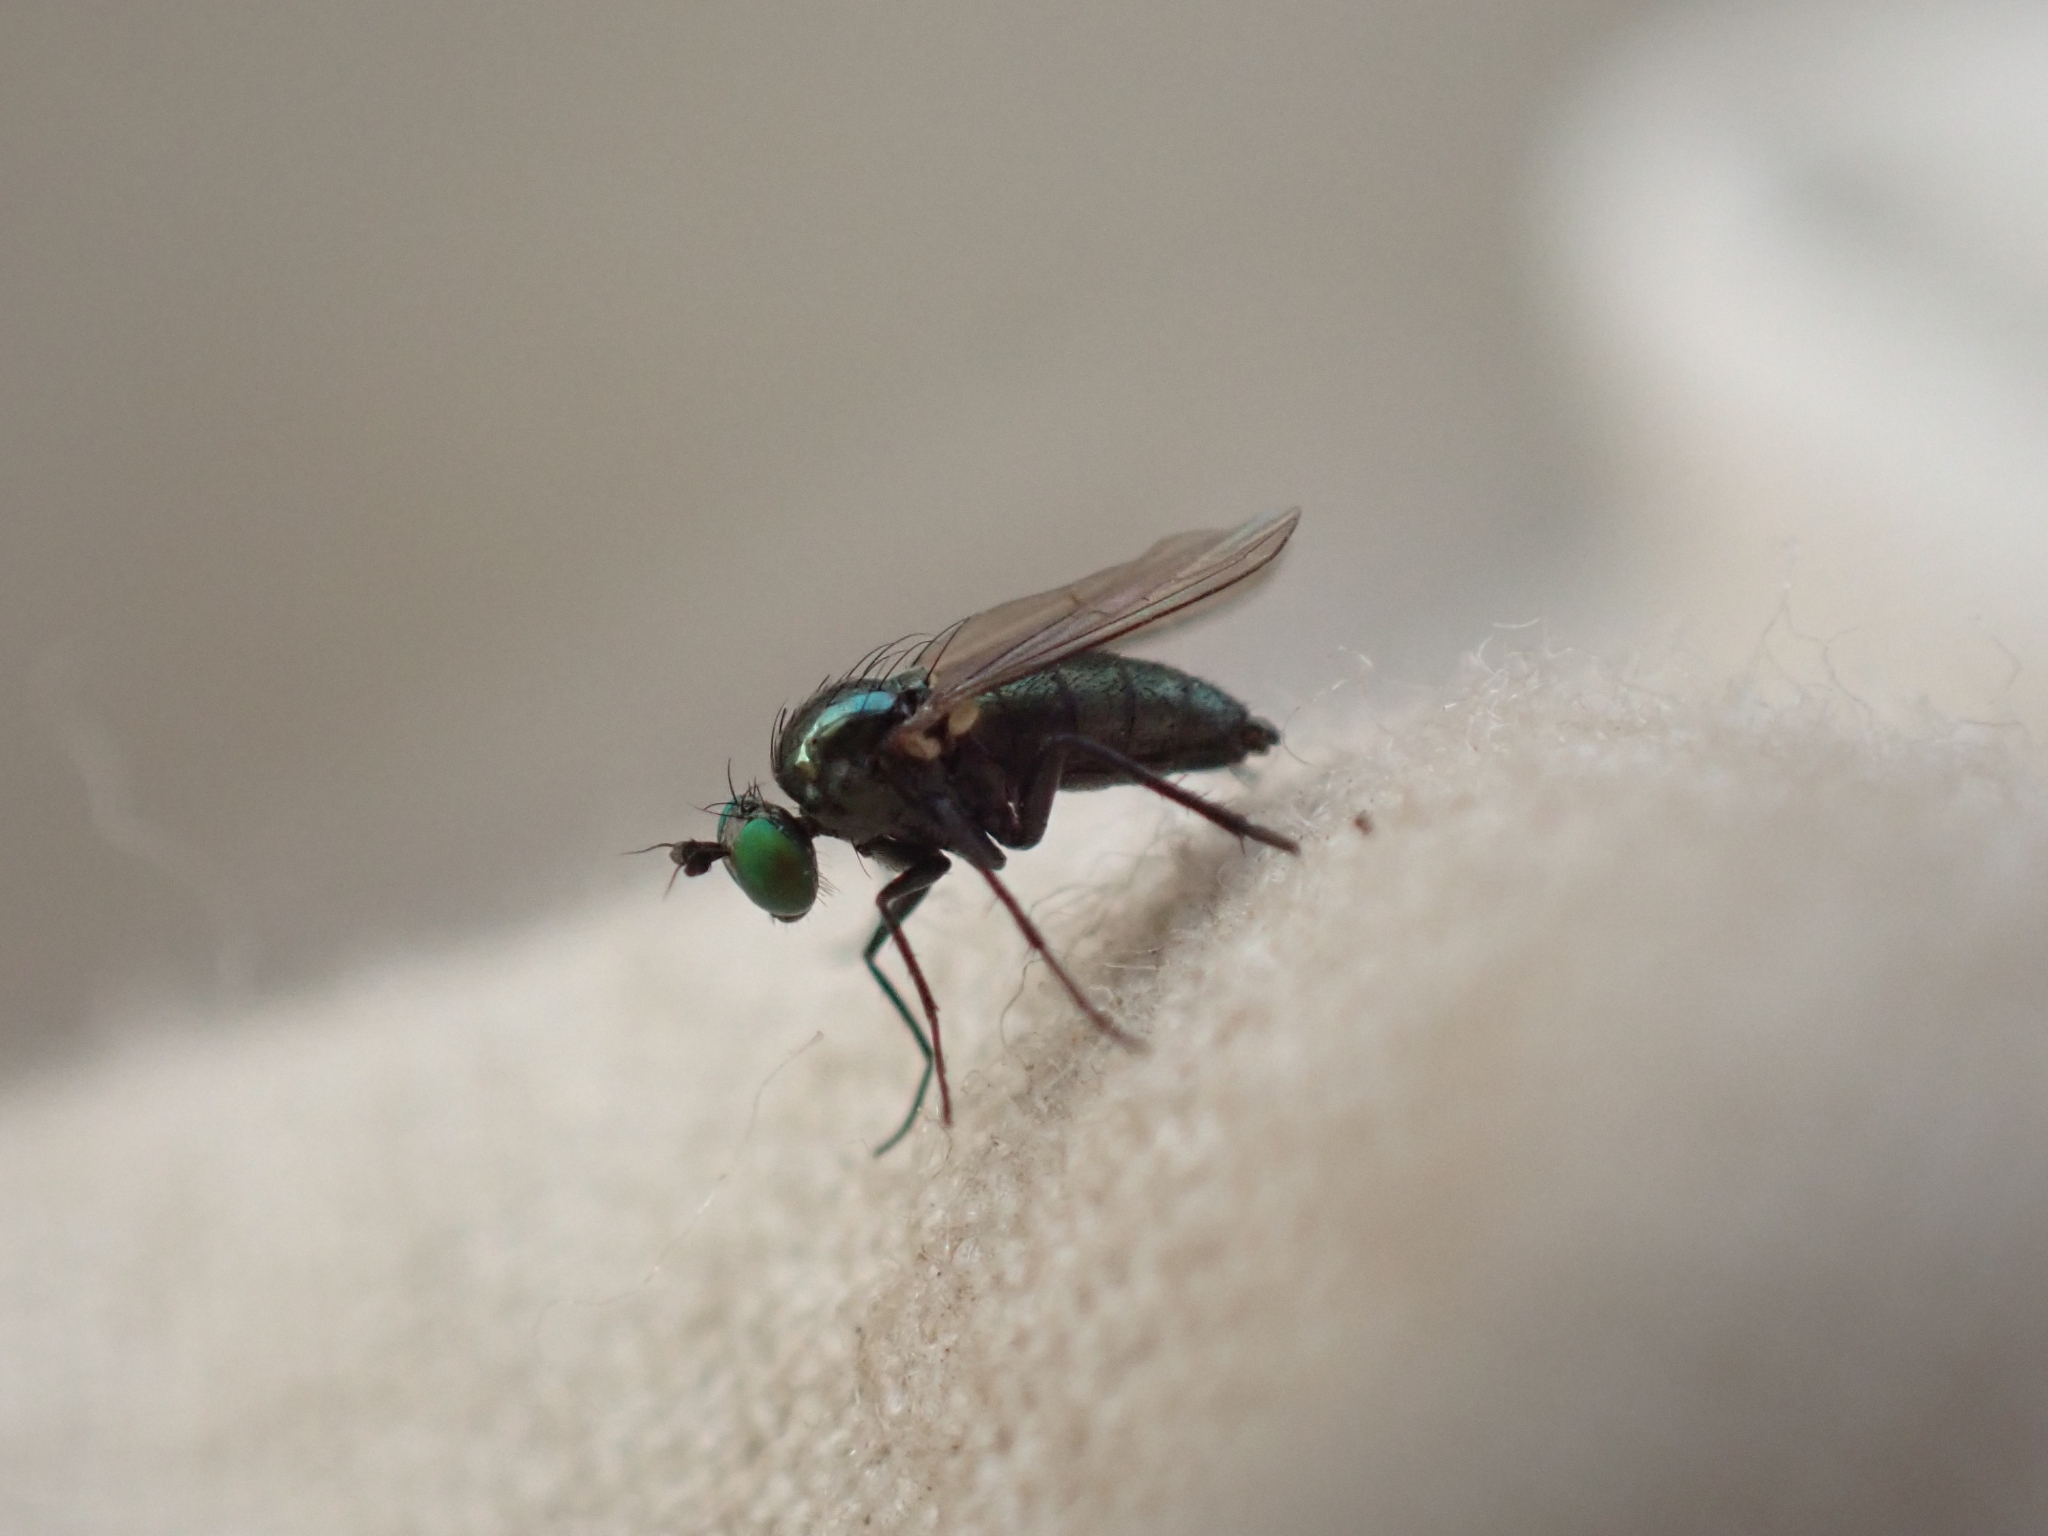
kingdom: Animalia
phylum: Arthropoda
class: Insecta
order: Diptera
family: Dolichopodidae
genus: Hercostomus
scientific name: Hercostomus unicolor
